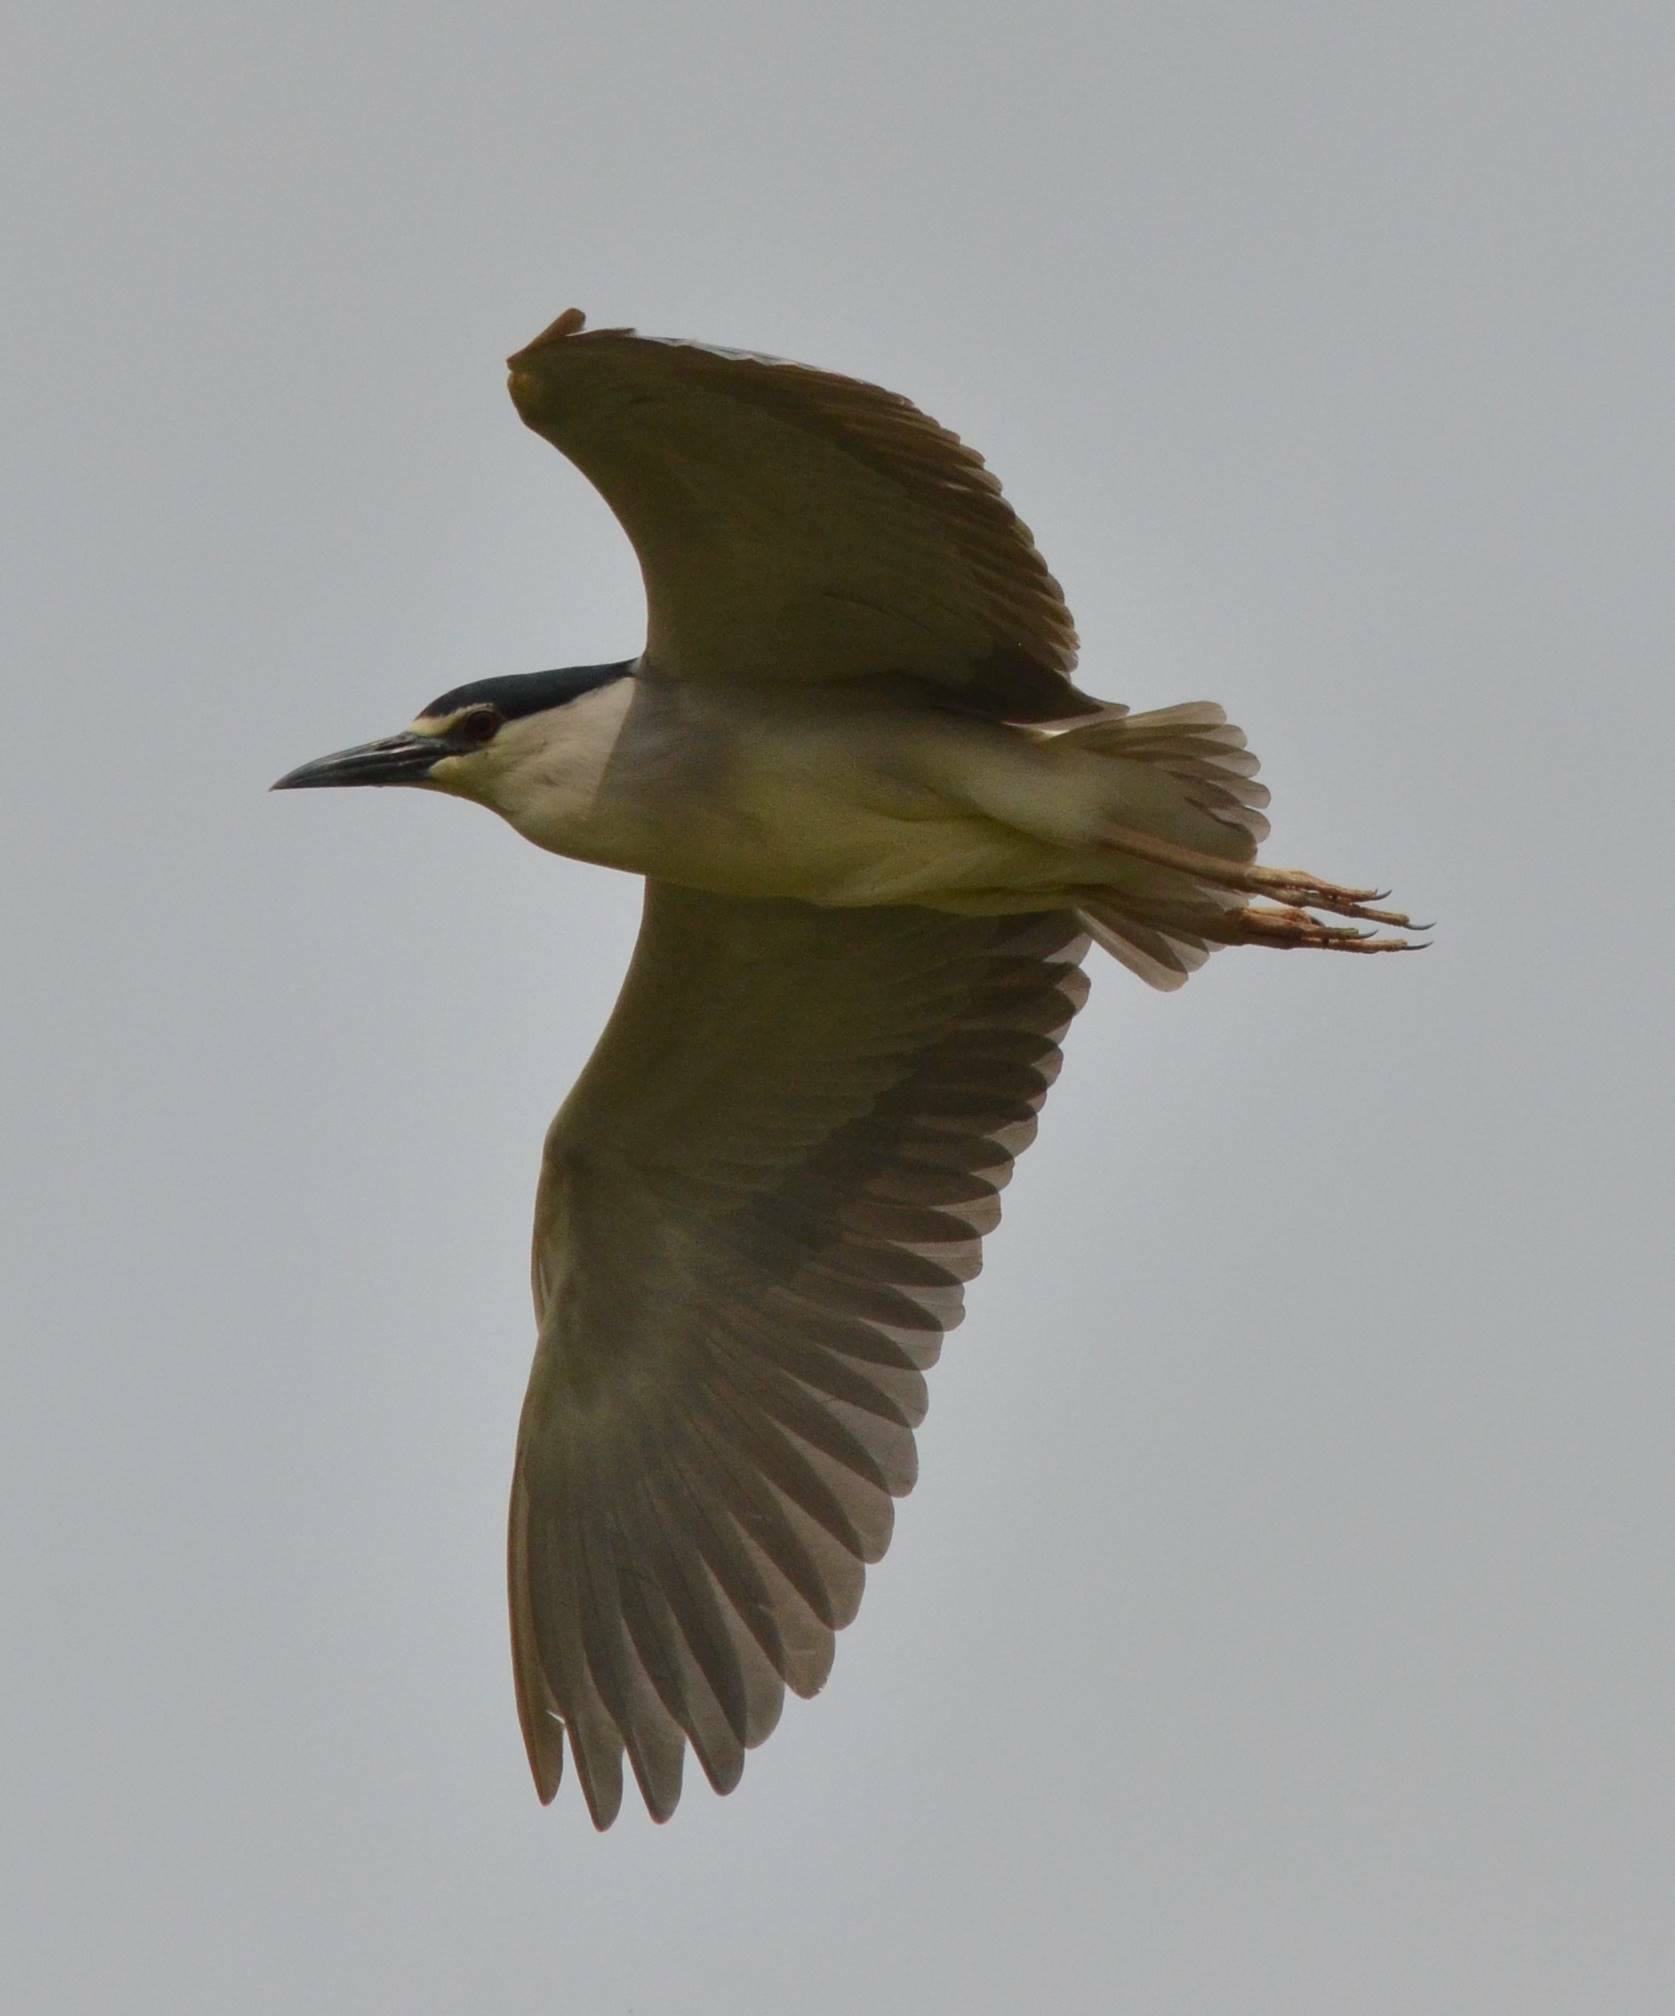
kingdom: Animalia
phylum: Chordata
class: Aves
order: Pelecaniformes
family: Ardeidae
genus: Nycticorax
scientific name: Nycticorax nycticorax
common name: Black-crowned night heron
